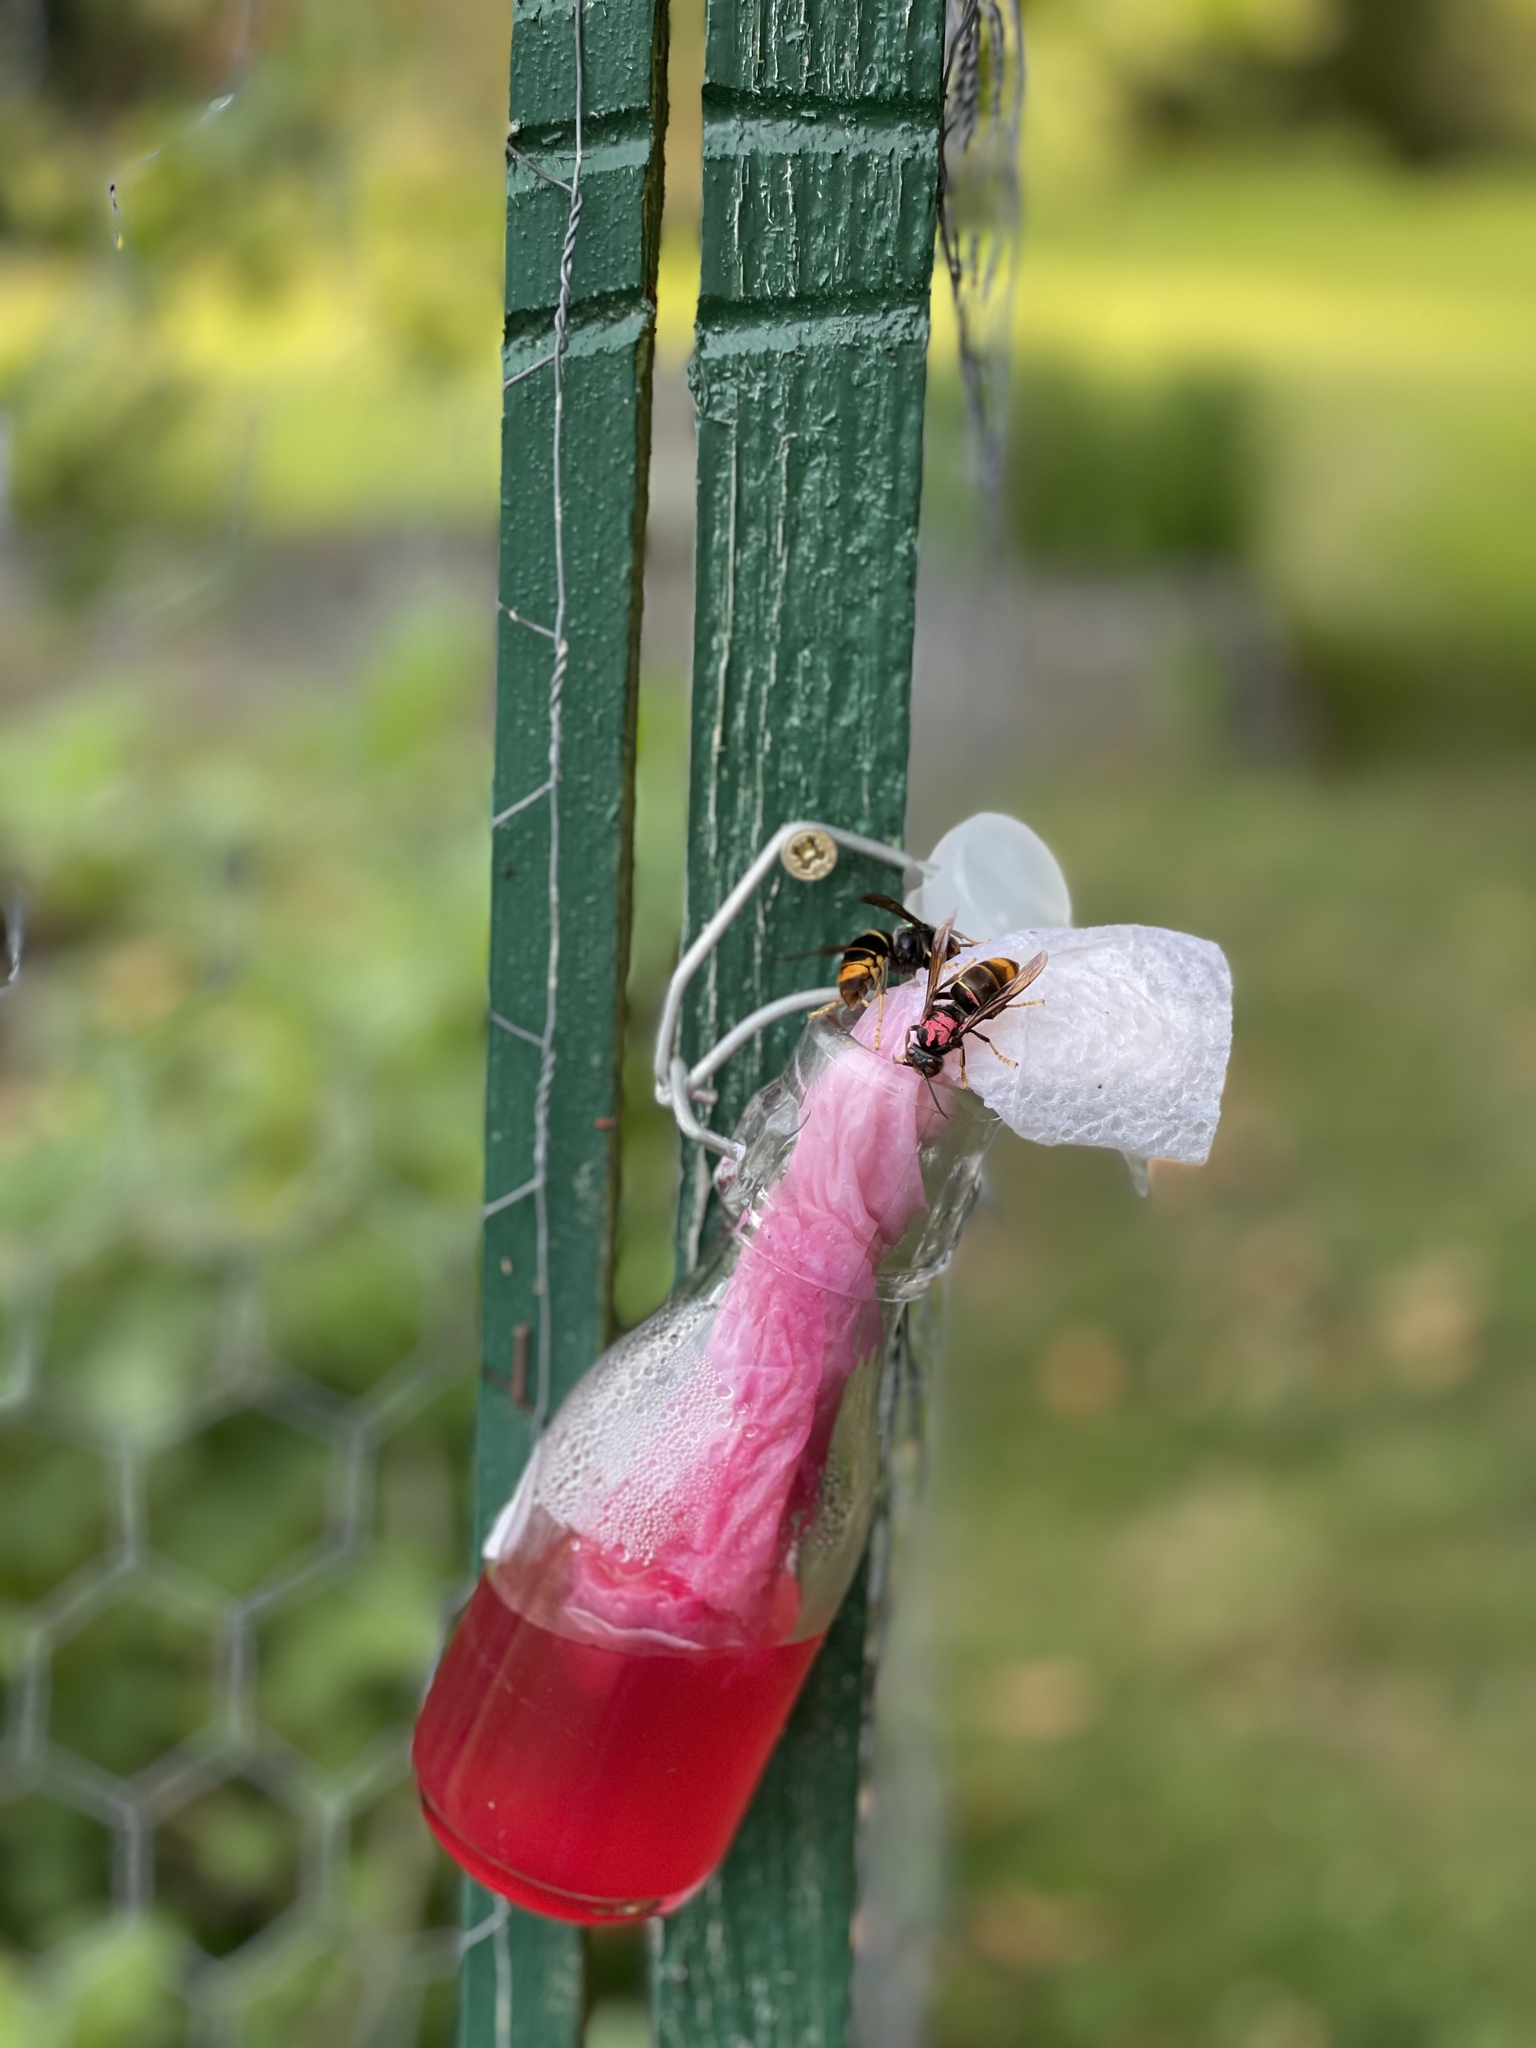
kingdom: Animalia
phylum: Arthropoda
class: Insecta
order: Hymenoptera
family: Vespidae
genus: Vespa
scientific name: Vespa velutina
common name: Asian hornet
